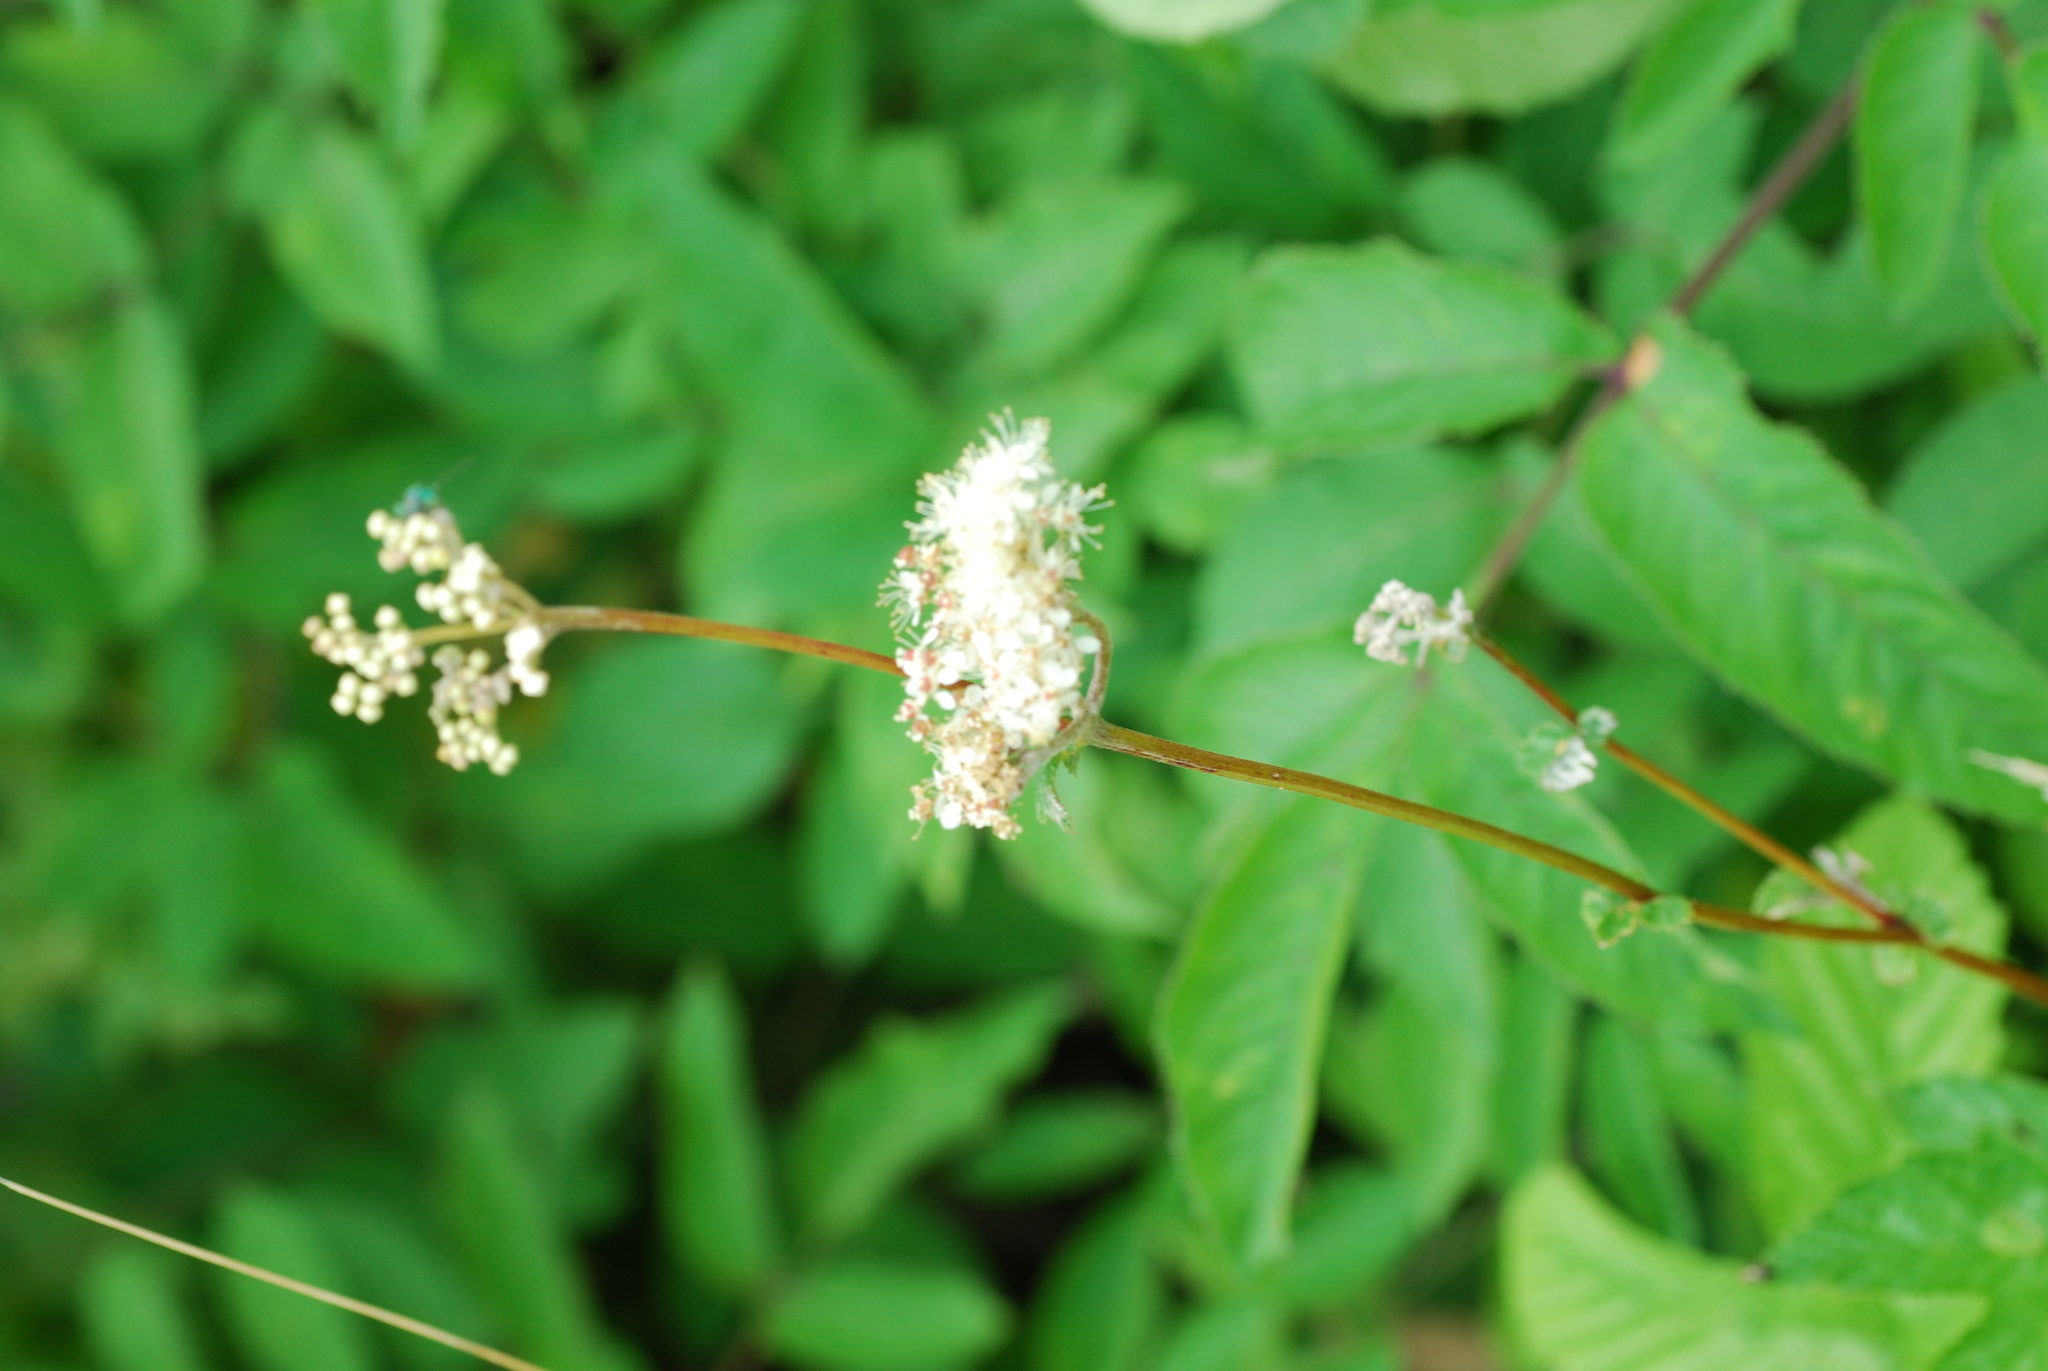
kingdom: Plantae
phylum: Tracheophyta
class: Magnoliopsida
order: Rosales
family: Rosaceae
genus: Filipendula
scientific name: Filipendula ulmaria
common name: Meadowsweet
